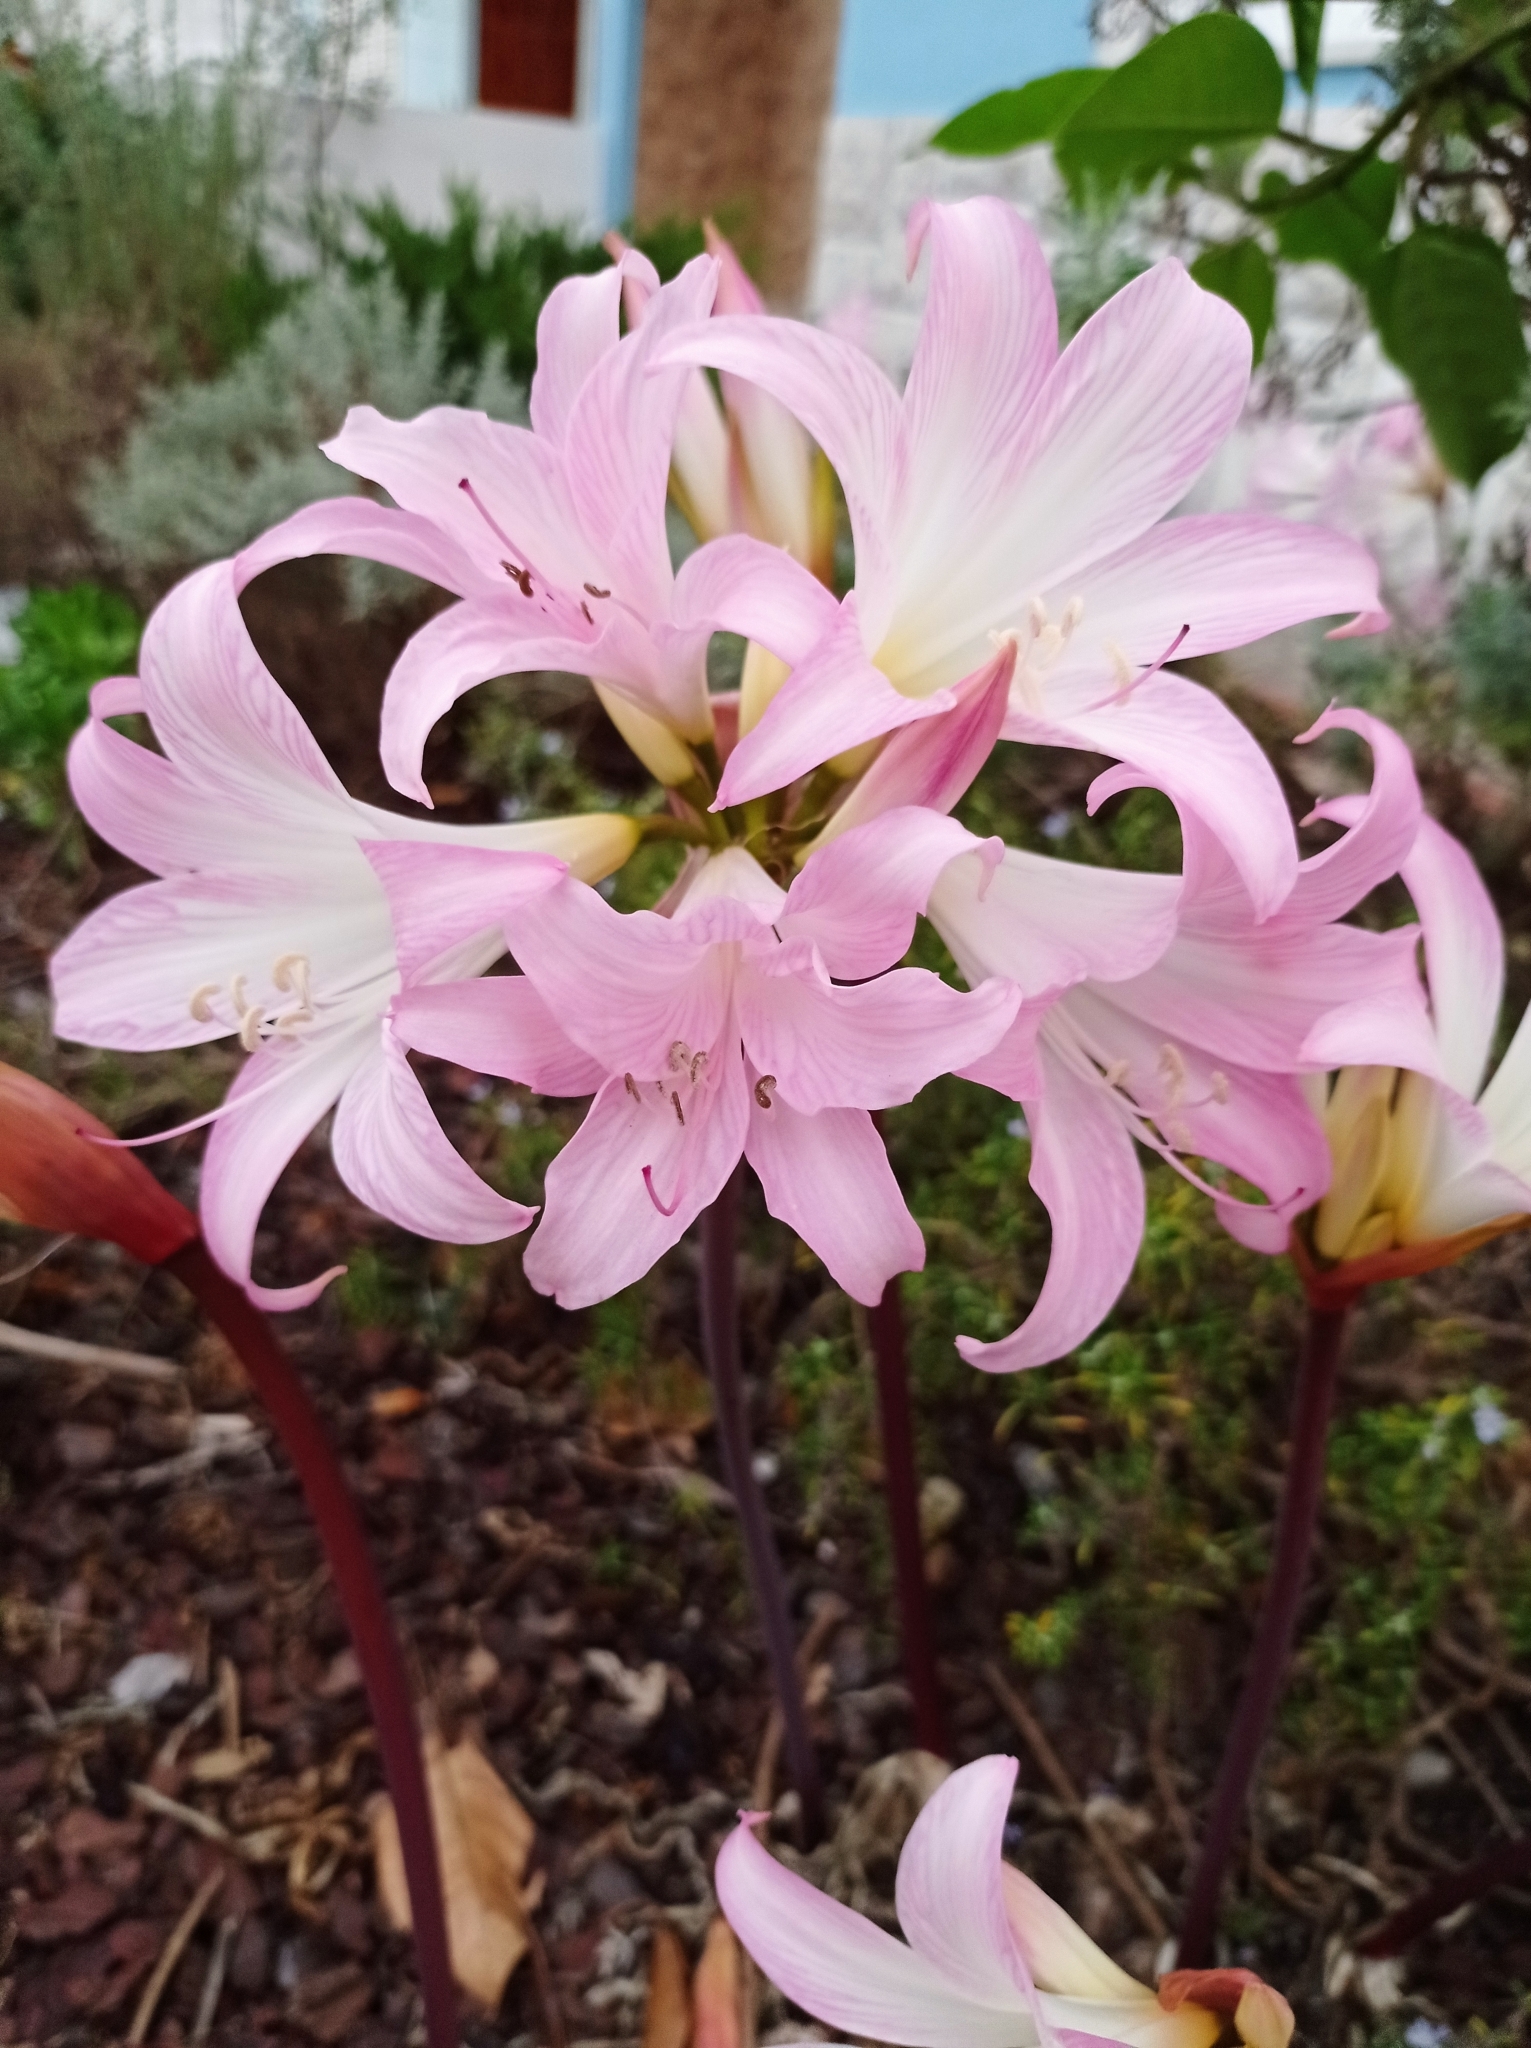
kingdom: Plantae
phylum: Tracheophyta
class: Liliopsida
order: Asparagales
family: Amaryllidaceae
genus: Amaryllis
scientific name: Amaryllis belladonna
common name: Jersey lily
